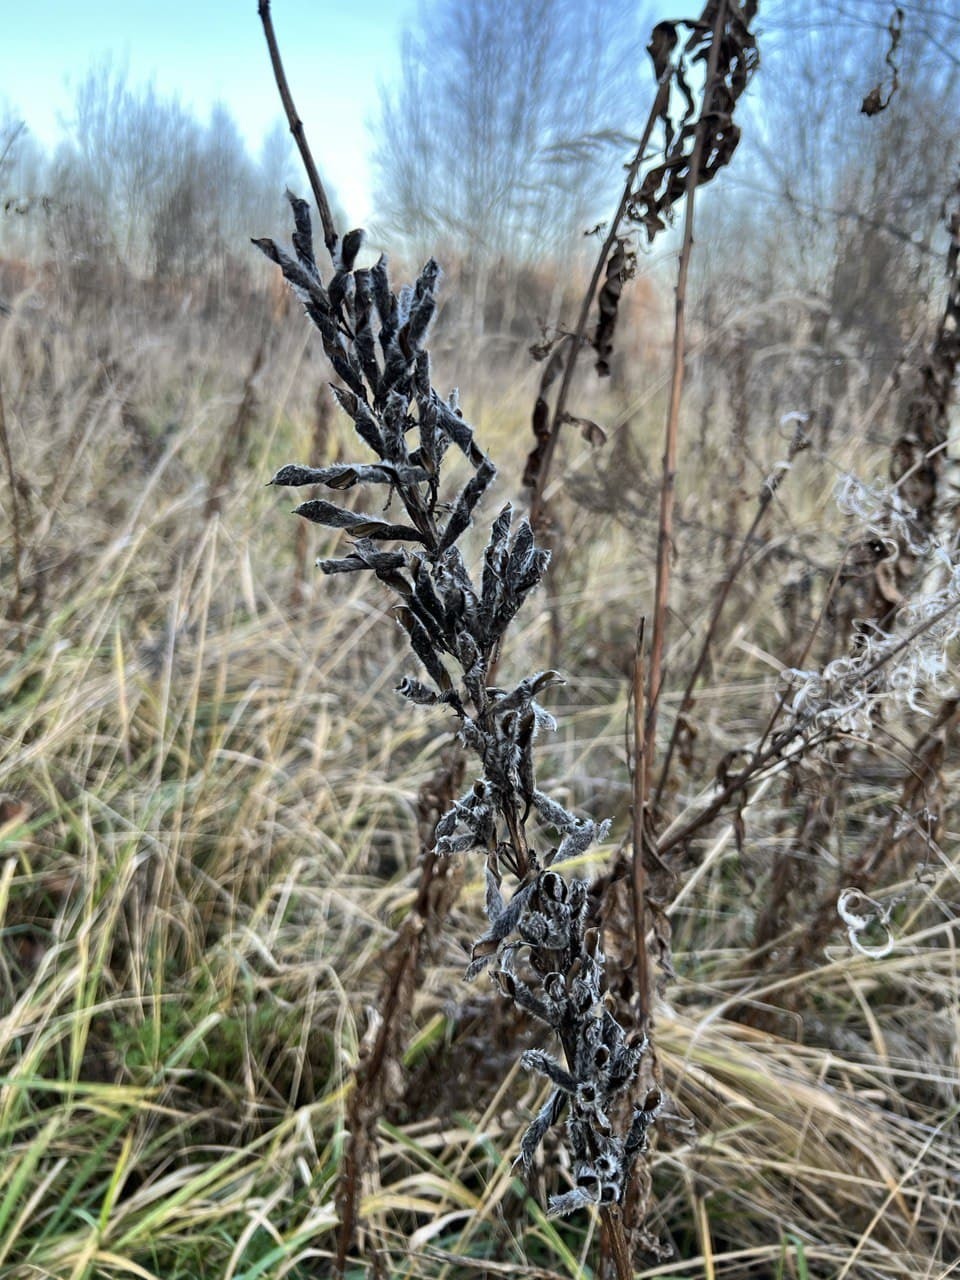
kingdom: Plantae
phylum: Tracheophyta
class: Magnoliopsida
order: Fabales
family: Fabaceae
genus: Lupinus
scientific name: Lupinus polyphyllus
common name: Garden lupin
